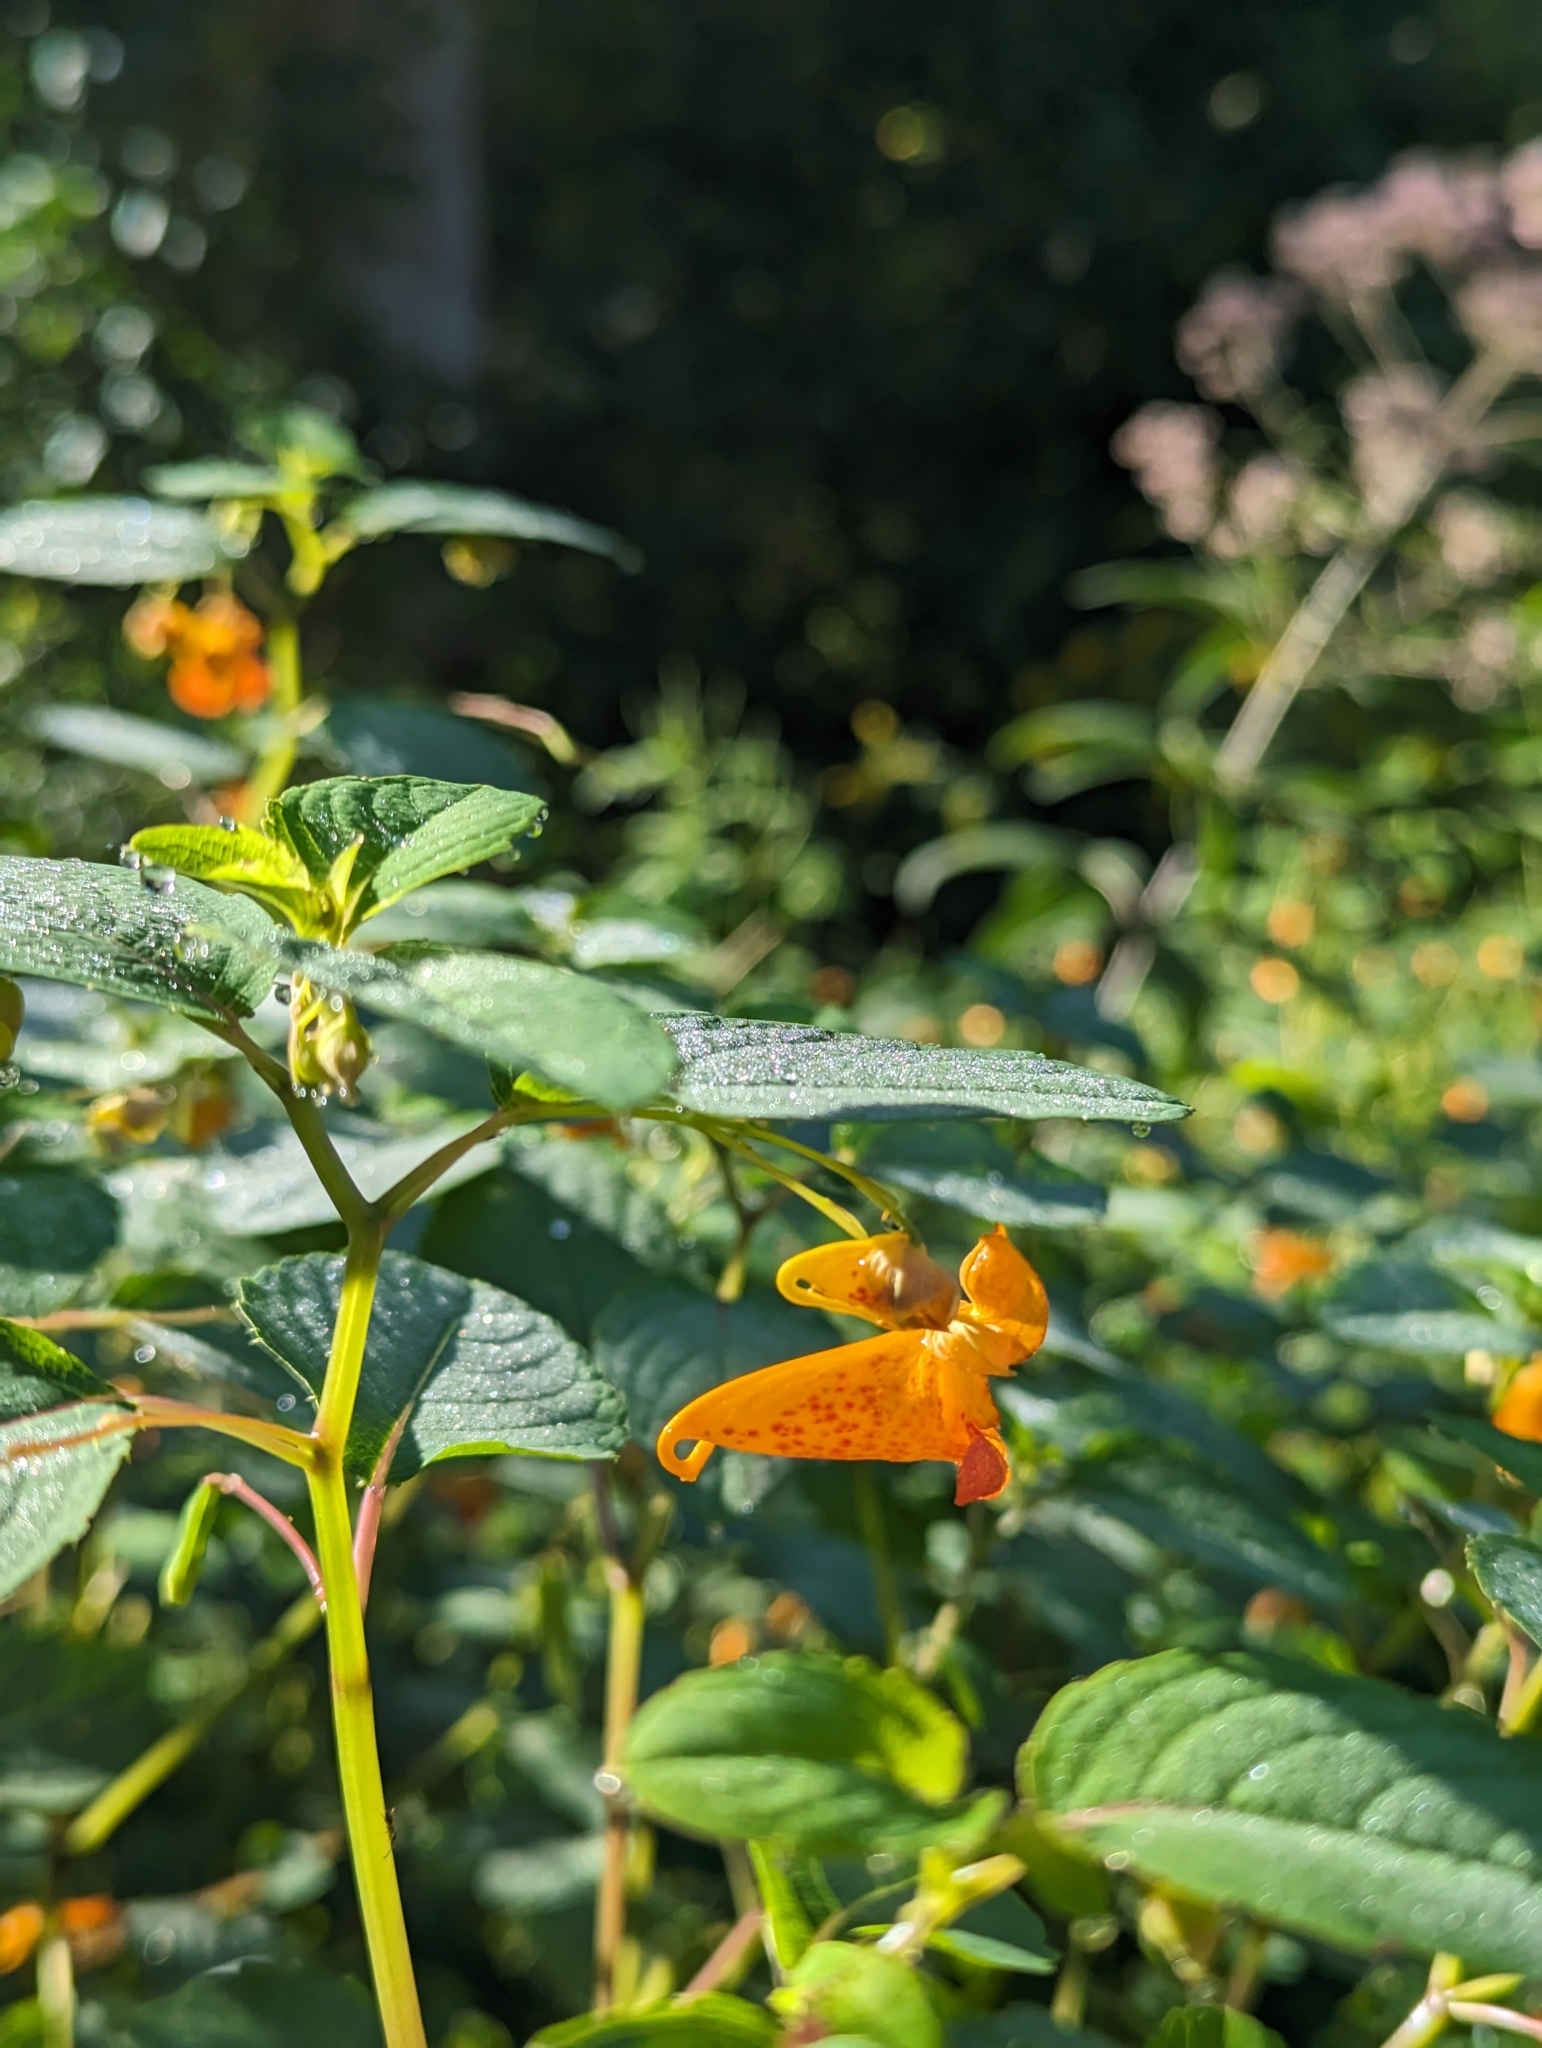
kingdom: Plantae
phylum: Tracheophyta
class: Magnoliopsida
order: Ericales
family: Balsaminaceae
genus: Impatiens
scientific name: Impatiens capensis
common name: Orange balsam
